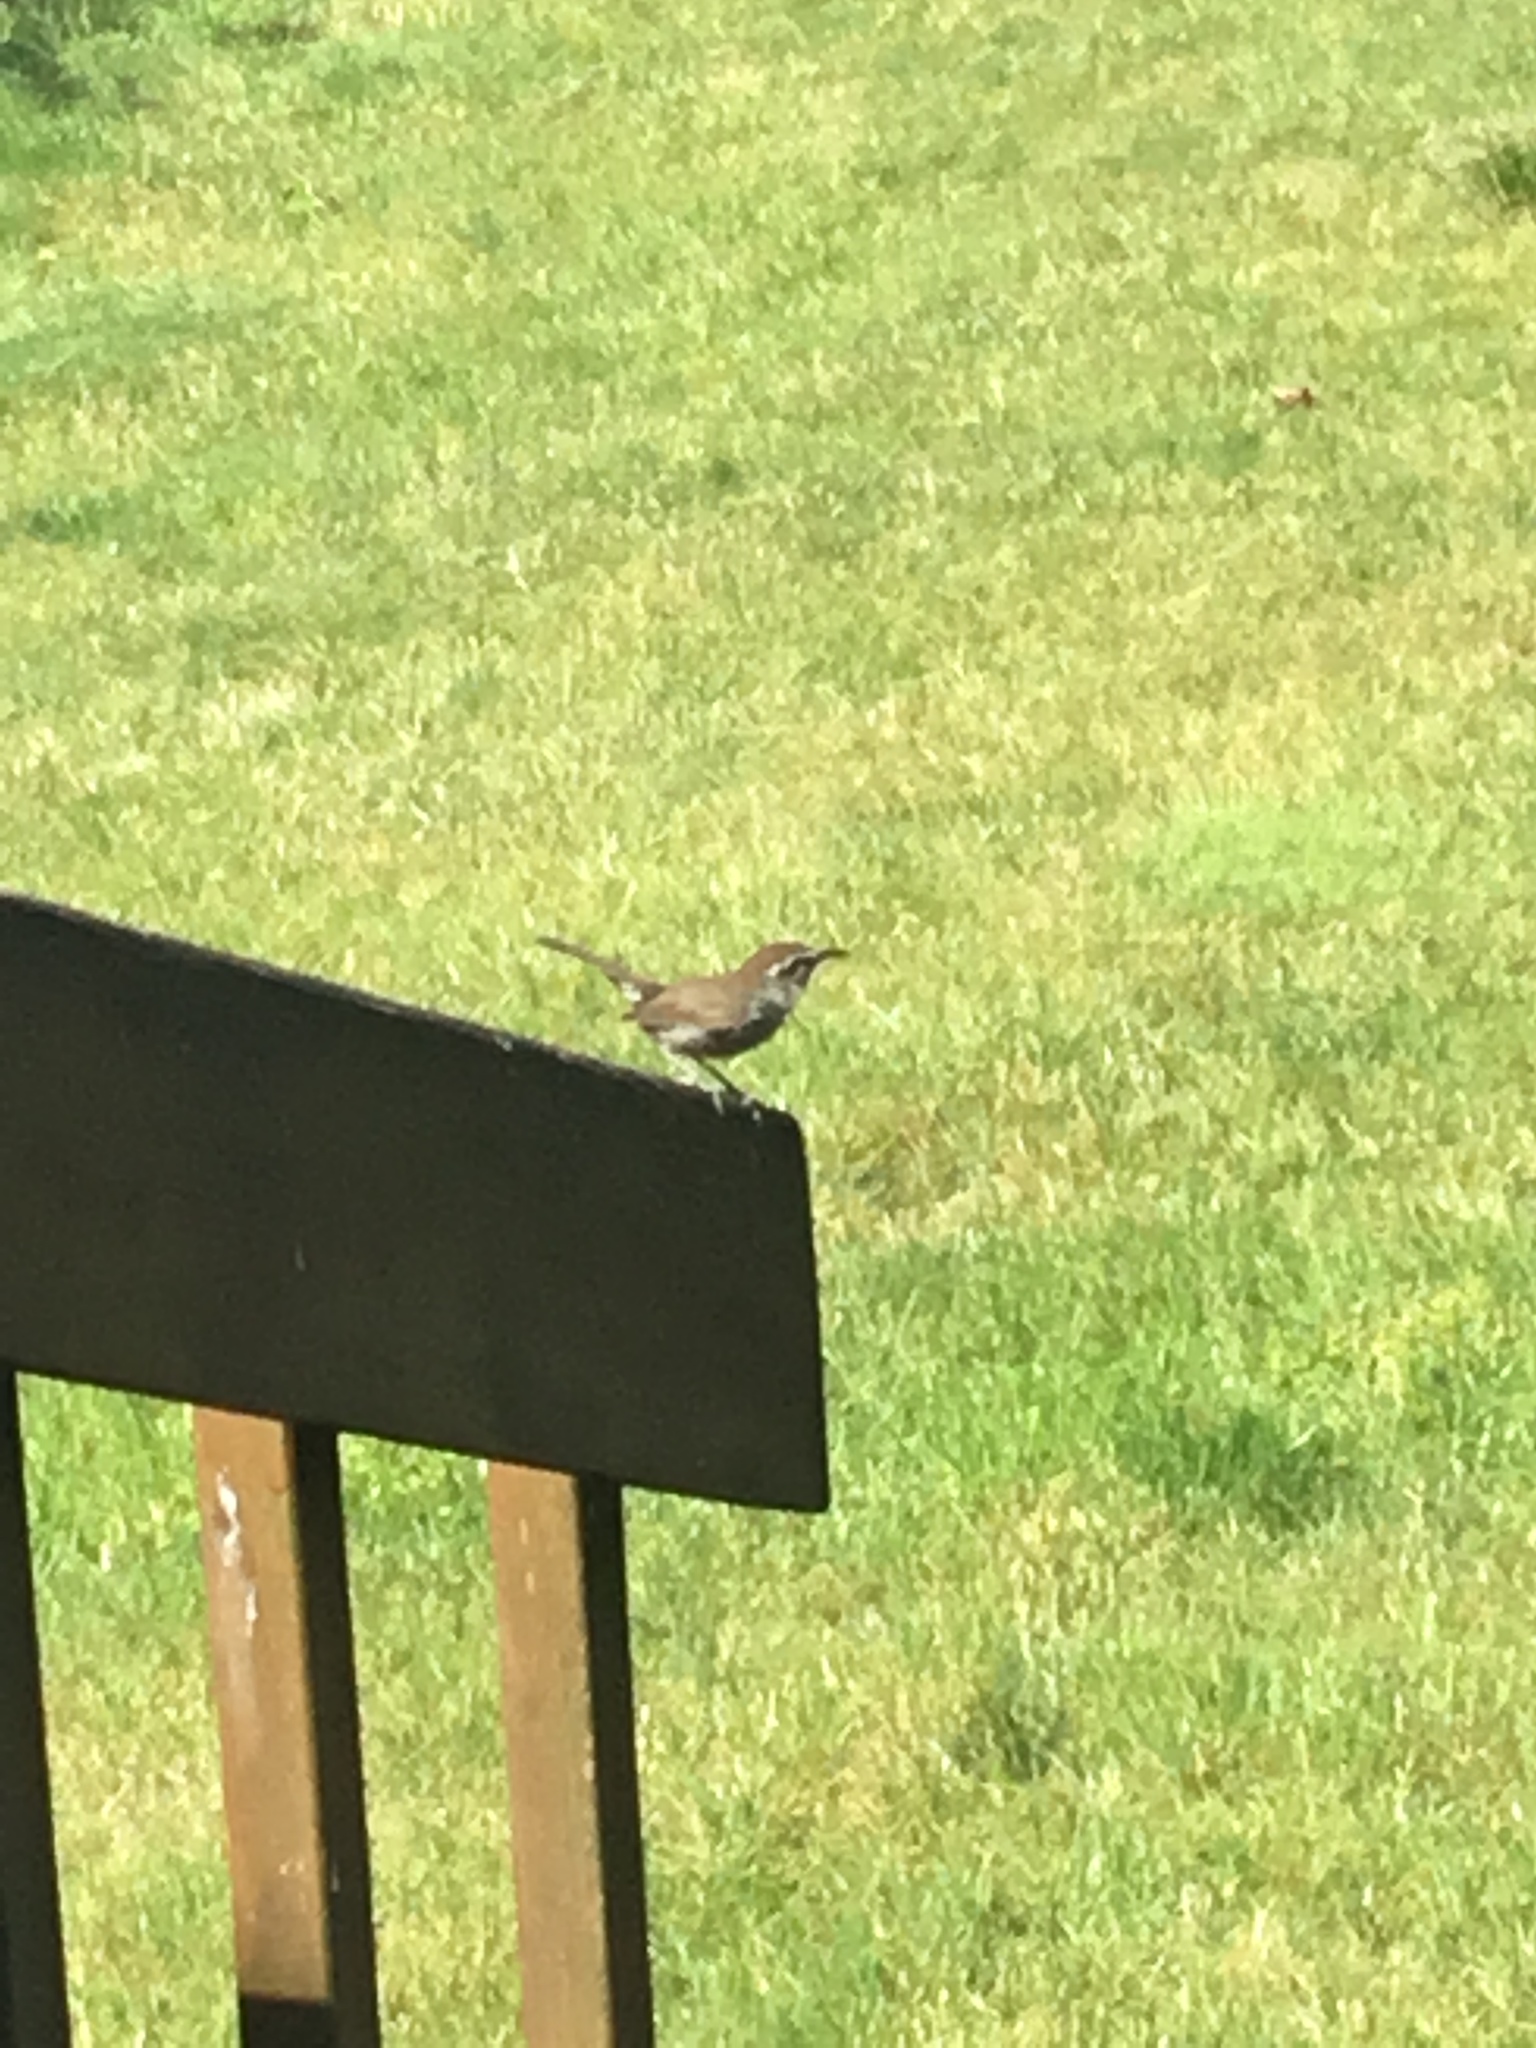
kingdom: Animalia
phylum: Chordata
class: Aves
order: Passeriformes
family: Troglodytidae
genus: Thryomanes
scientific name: Thryomanes bewickii
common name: Bewick's wren
